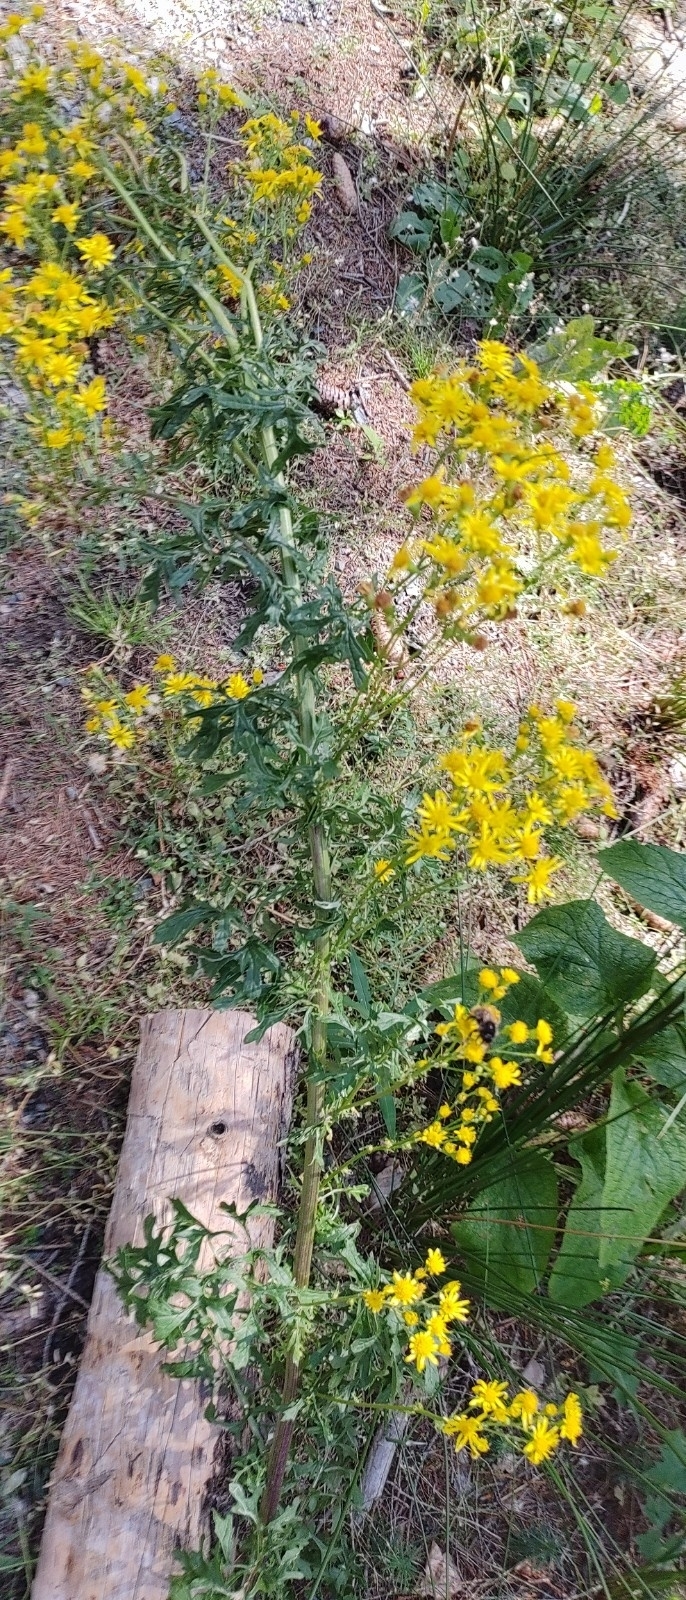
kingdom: Plantae
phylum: Tracheophyta
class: Magnoliopsida
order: Asterales
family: Asteraceae
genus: Jacobaea
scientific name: Jacobaea vulgaris
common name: Stinking willie
